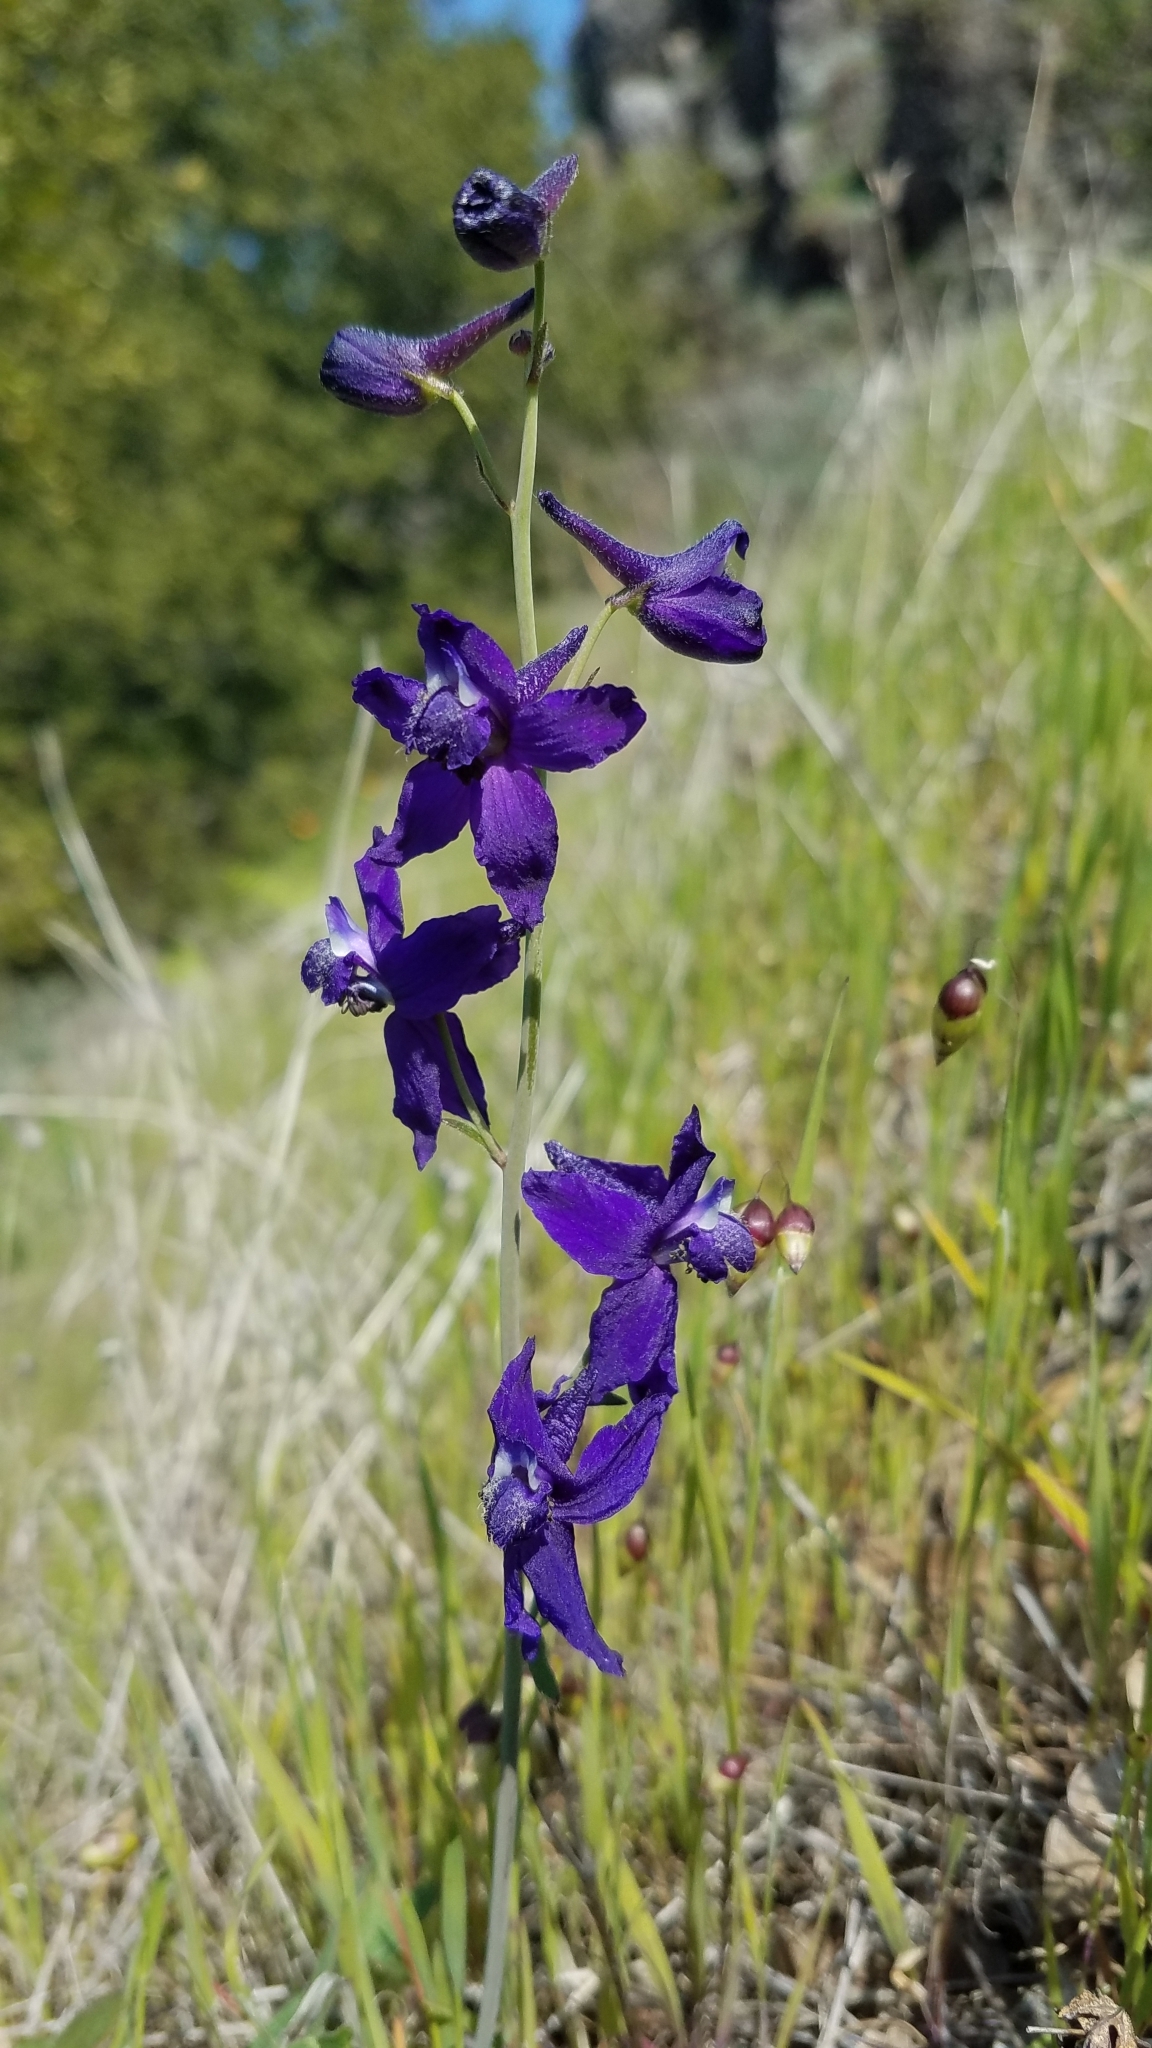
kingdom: Plantae
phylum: Tracheophyta
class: Magnoliopsida
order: Ranunculales
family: Ranunculaceae
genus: Delphinium
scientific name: Delphinium patens
